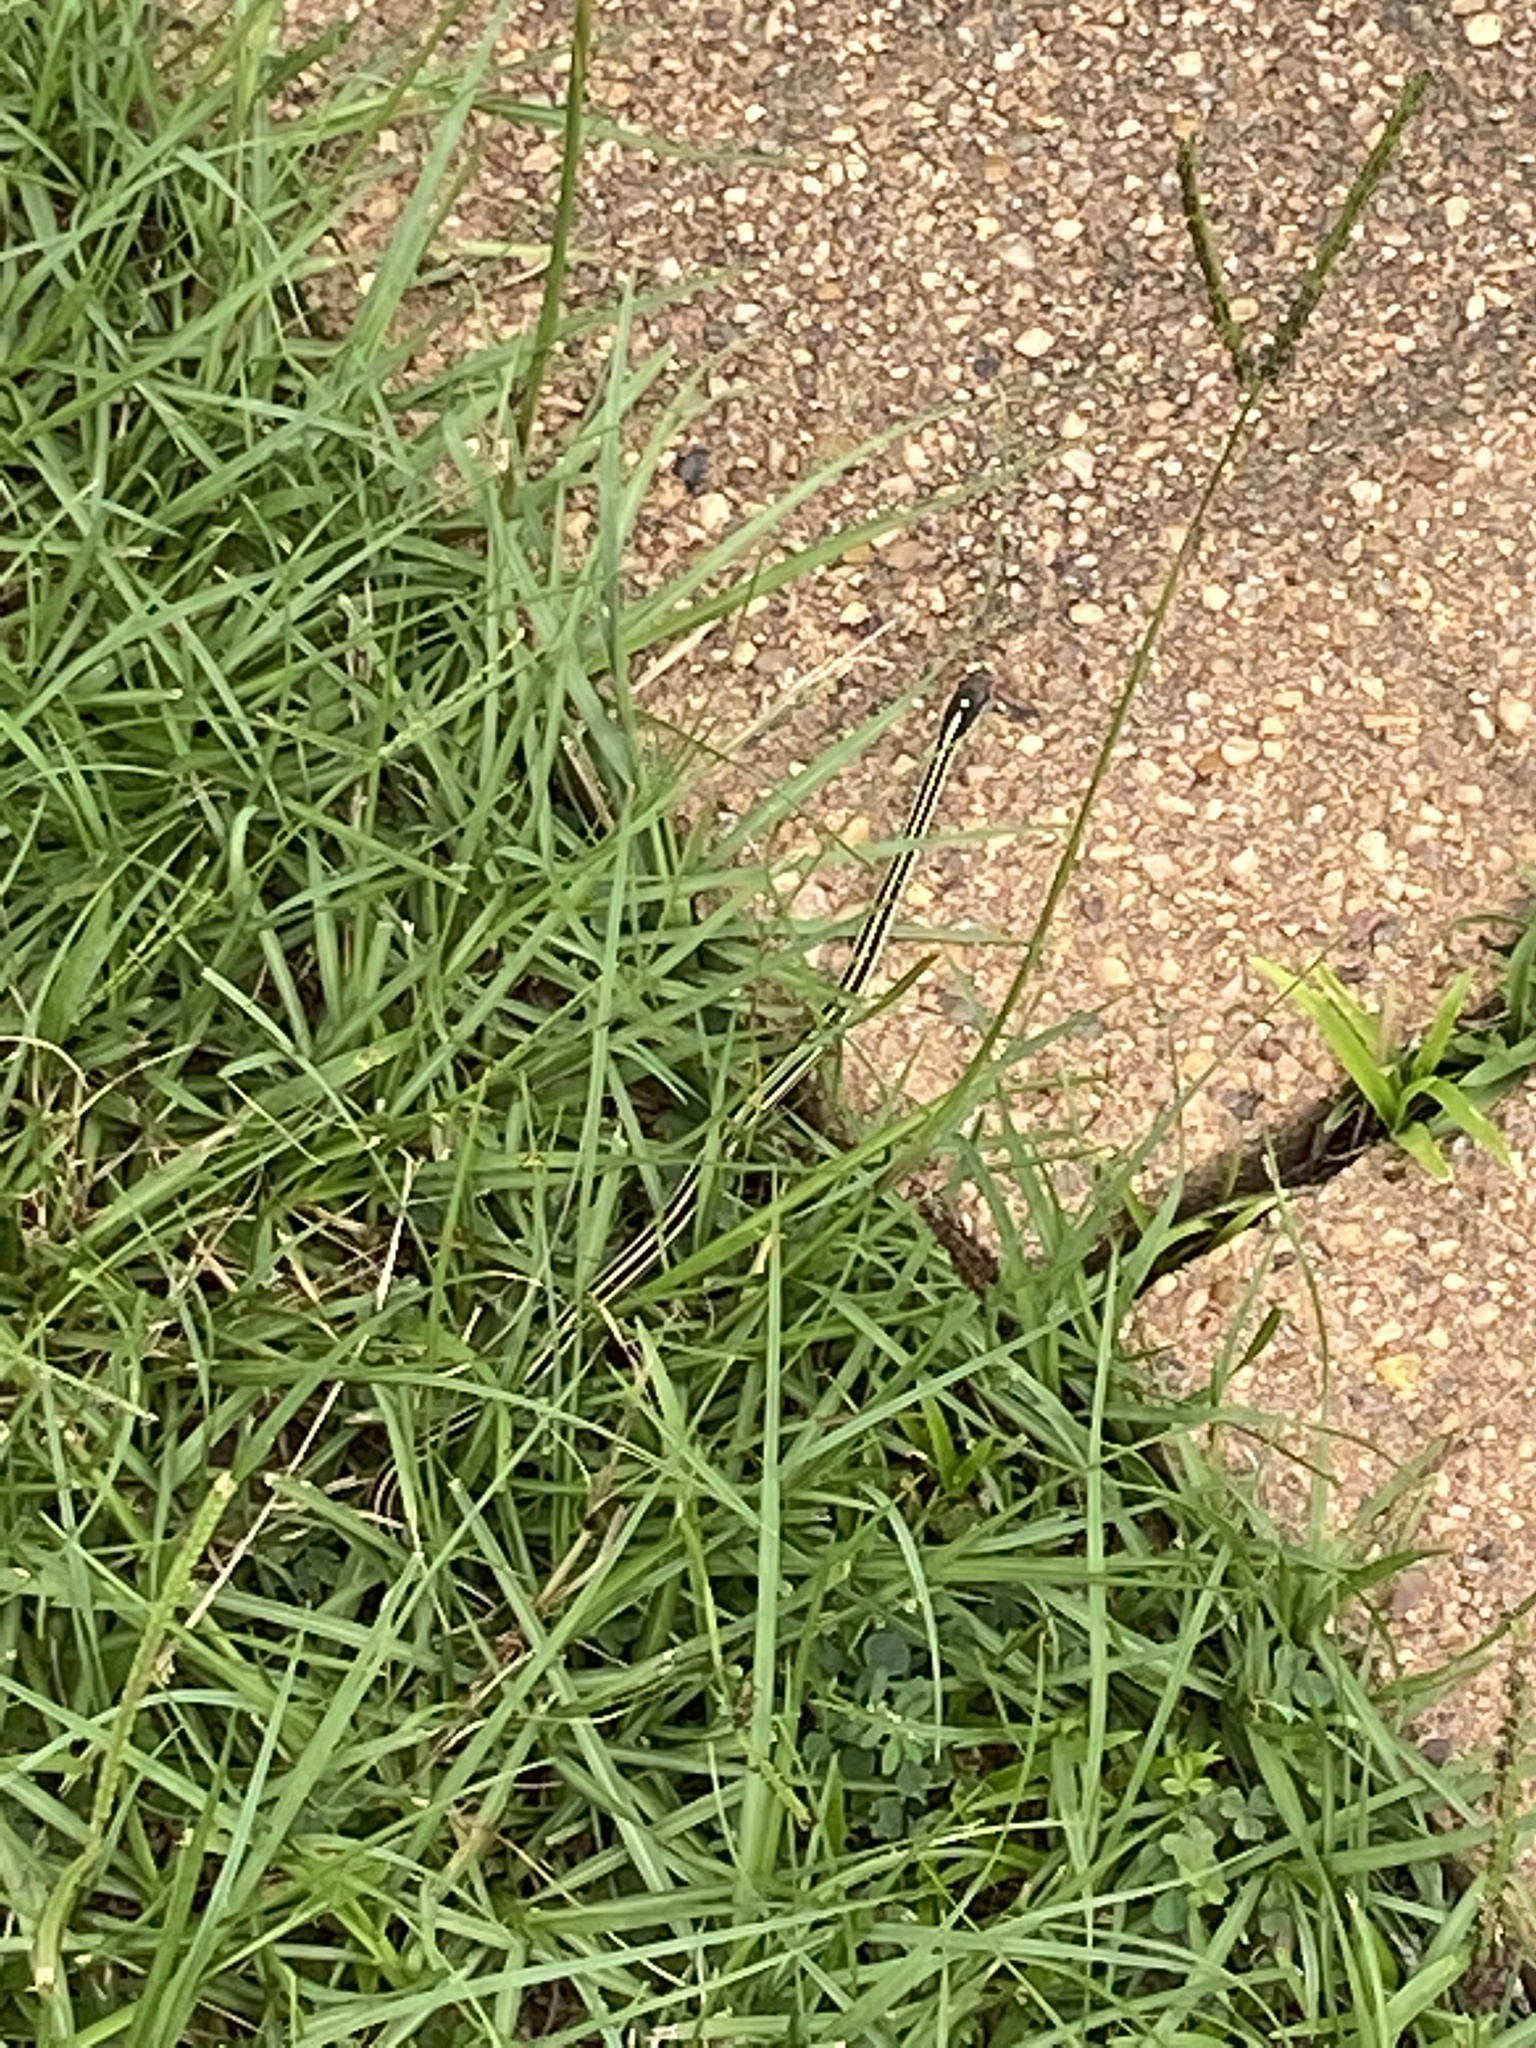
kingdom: Animalia
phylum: Chordata
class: Squamata
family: Colubridae
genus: Thamnophis
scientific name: Thamnophis proximus
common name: Western ribbon snake
